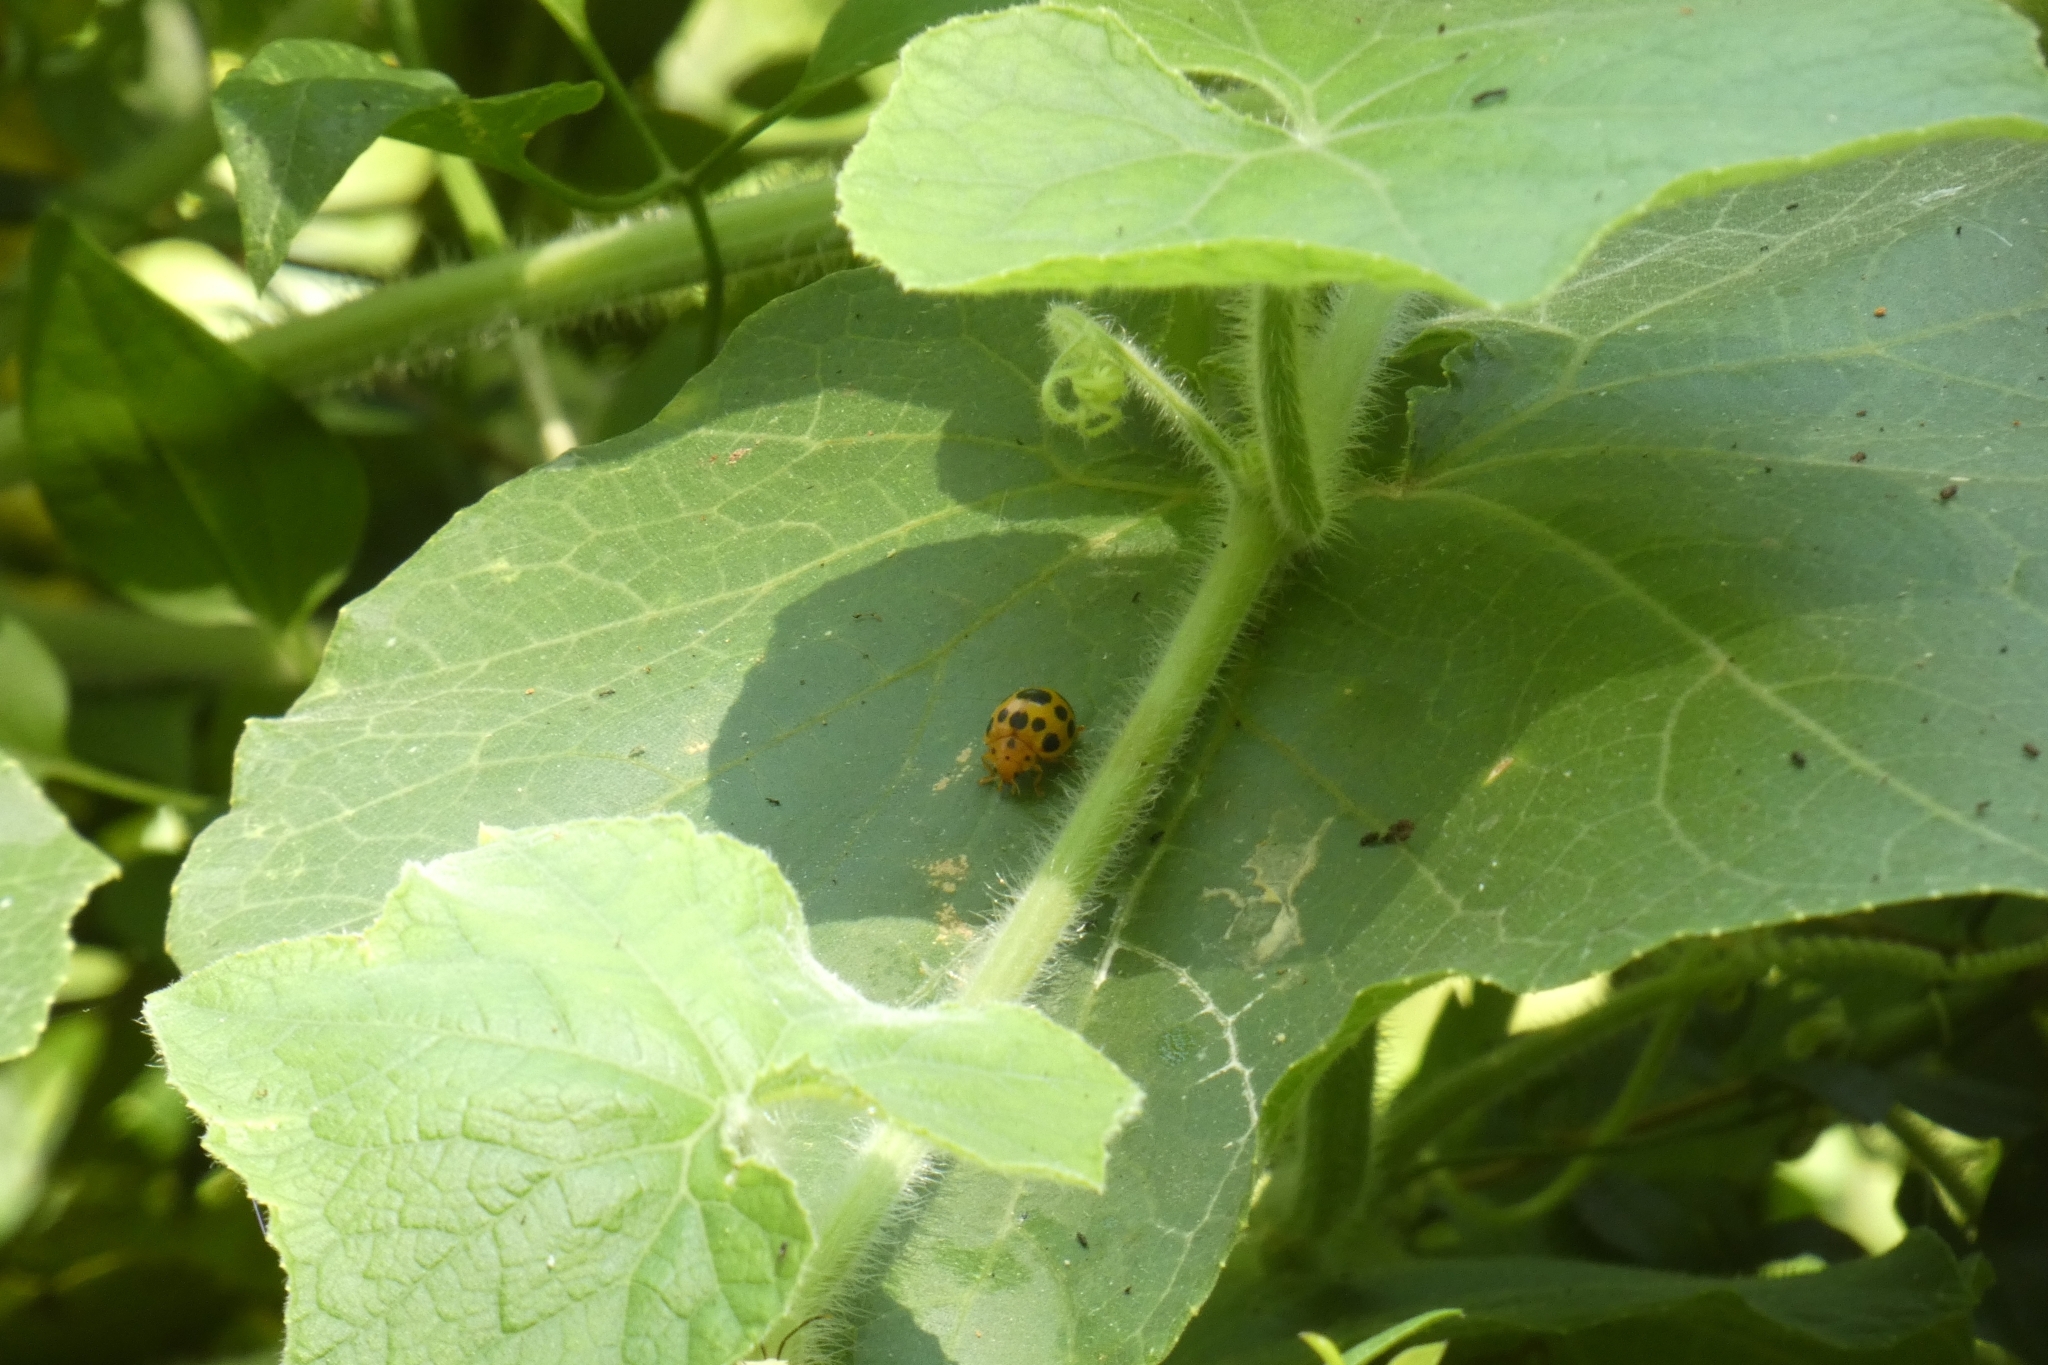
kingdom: Animalia
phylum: Arthropoda
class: Insecta
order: Coleoptera
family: Coccinellidae
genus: Epilachna
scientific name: Epilachna borealis
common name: Squash beetle
